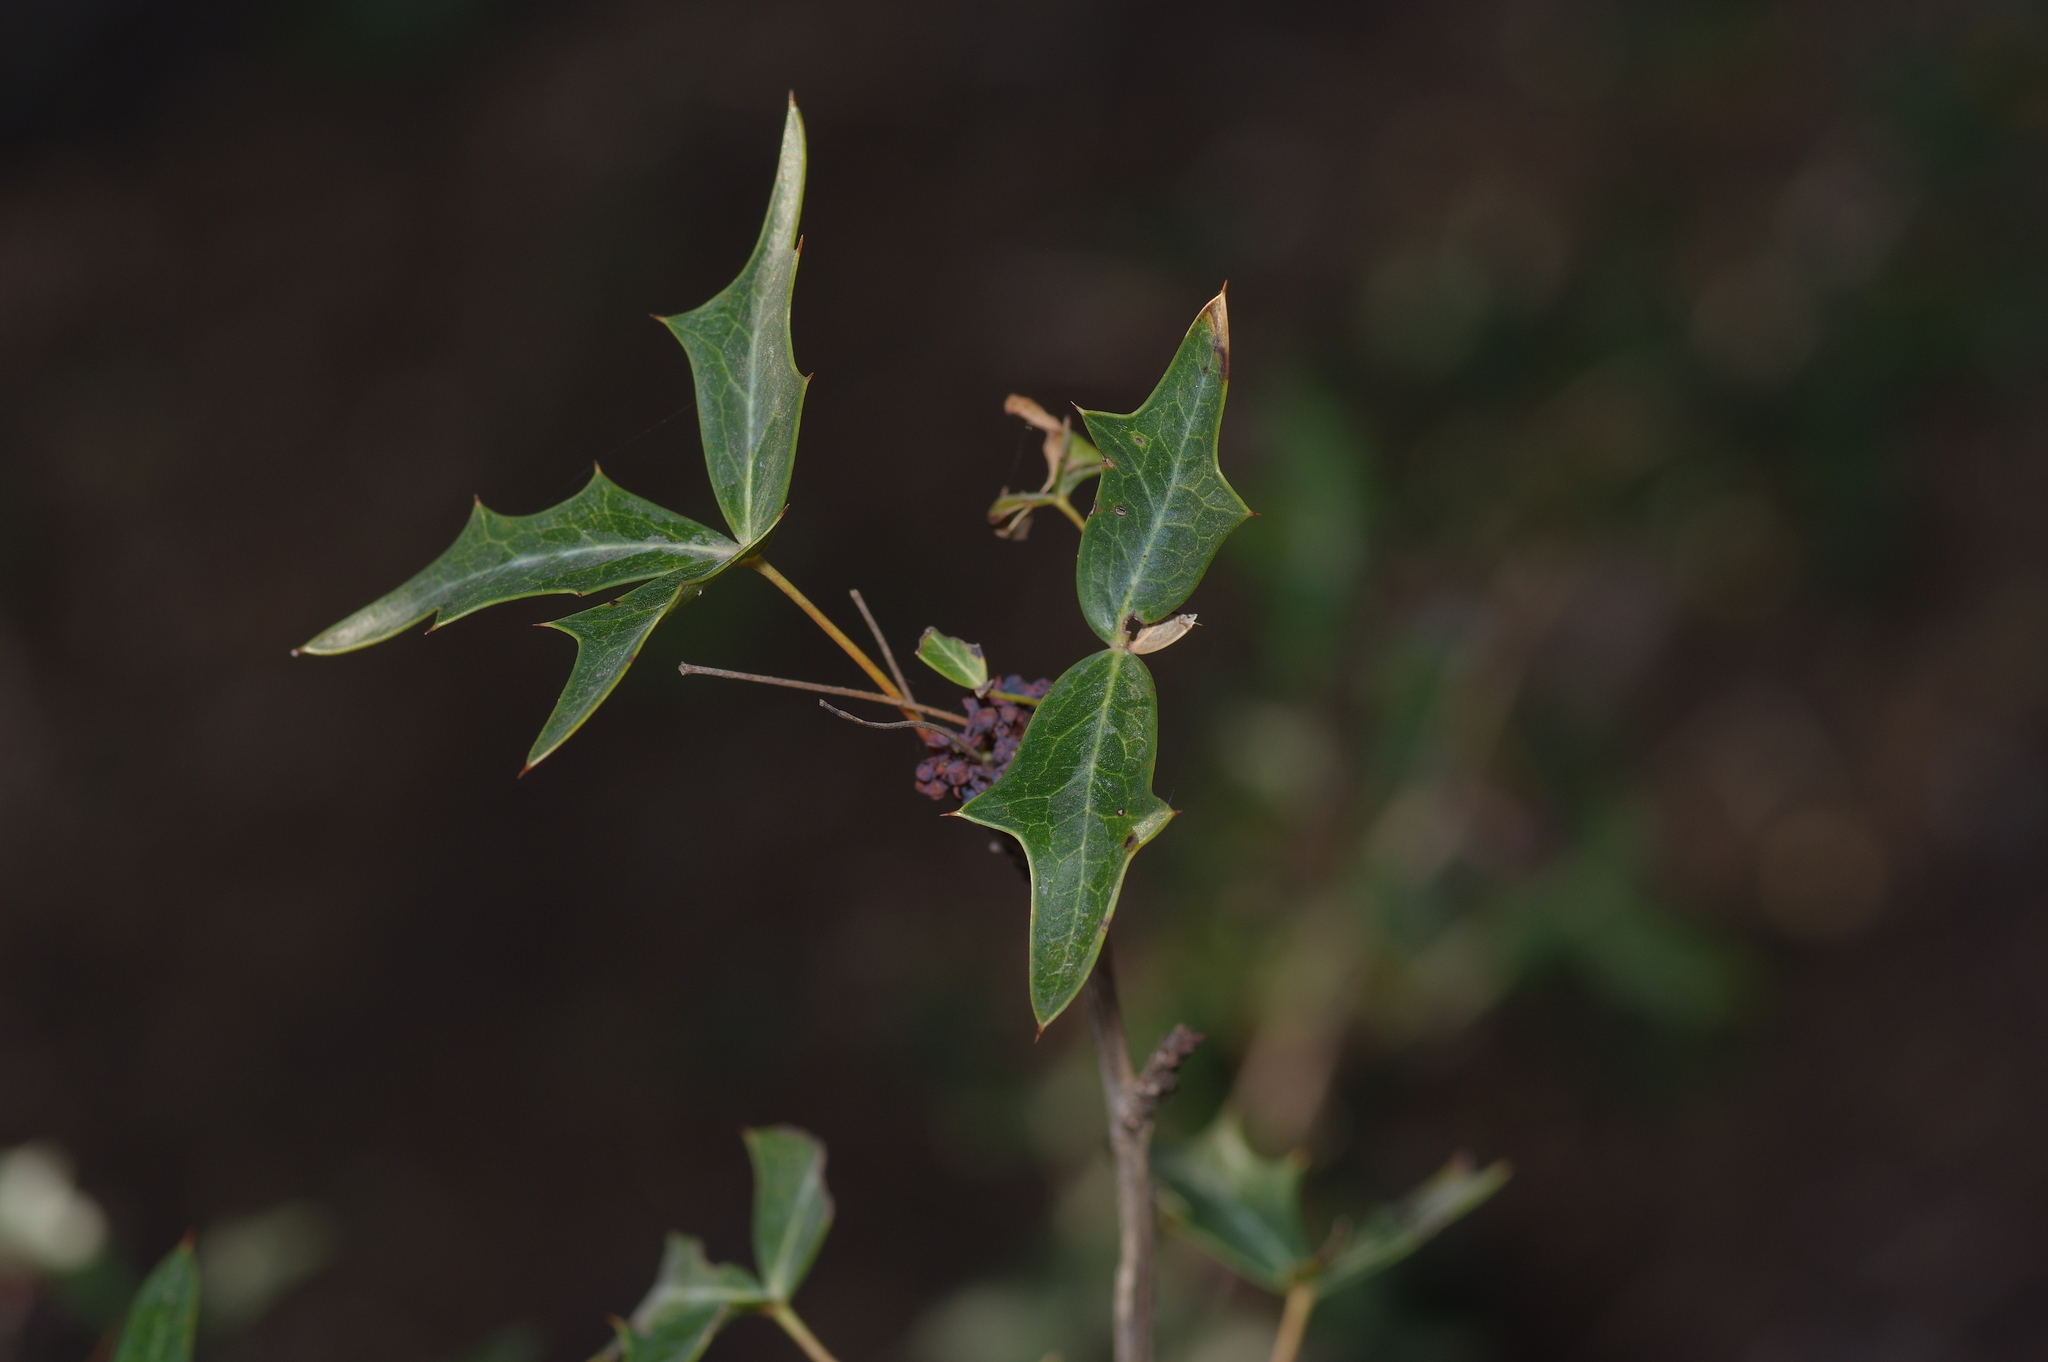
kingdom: Plantae
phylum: Tracheophyta
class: Magnoliopsida
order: Ranunculales
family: Berberidaceae
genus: Alloberberis
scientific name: Alloberberis trifoliolata
